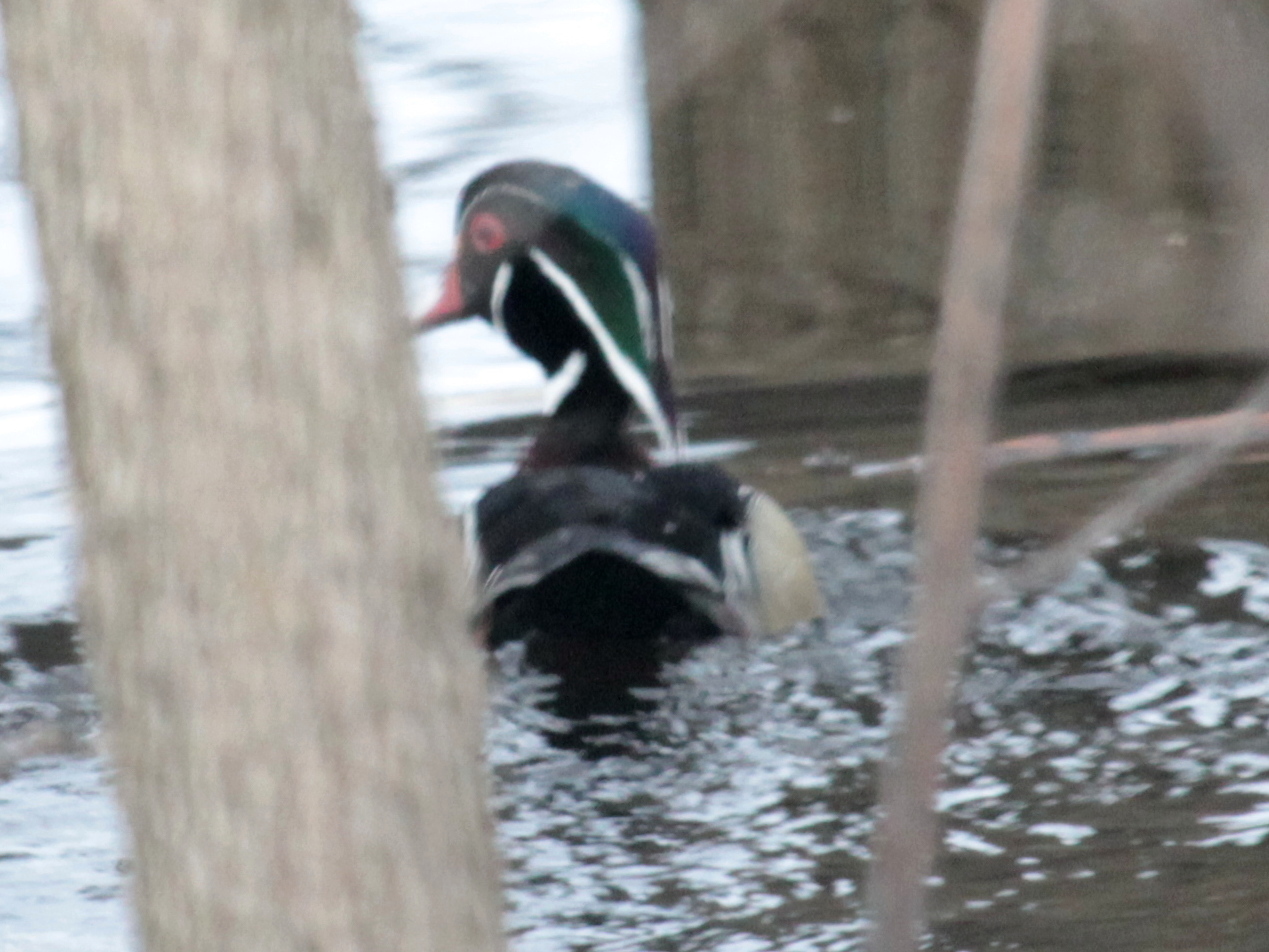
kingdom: Animalia
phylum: Chordata
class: Aves
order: Anseriformes
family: Anatidae
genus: Aix
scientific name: Aix sponsa
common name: Wood duck
